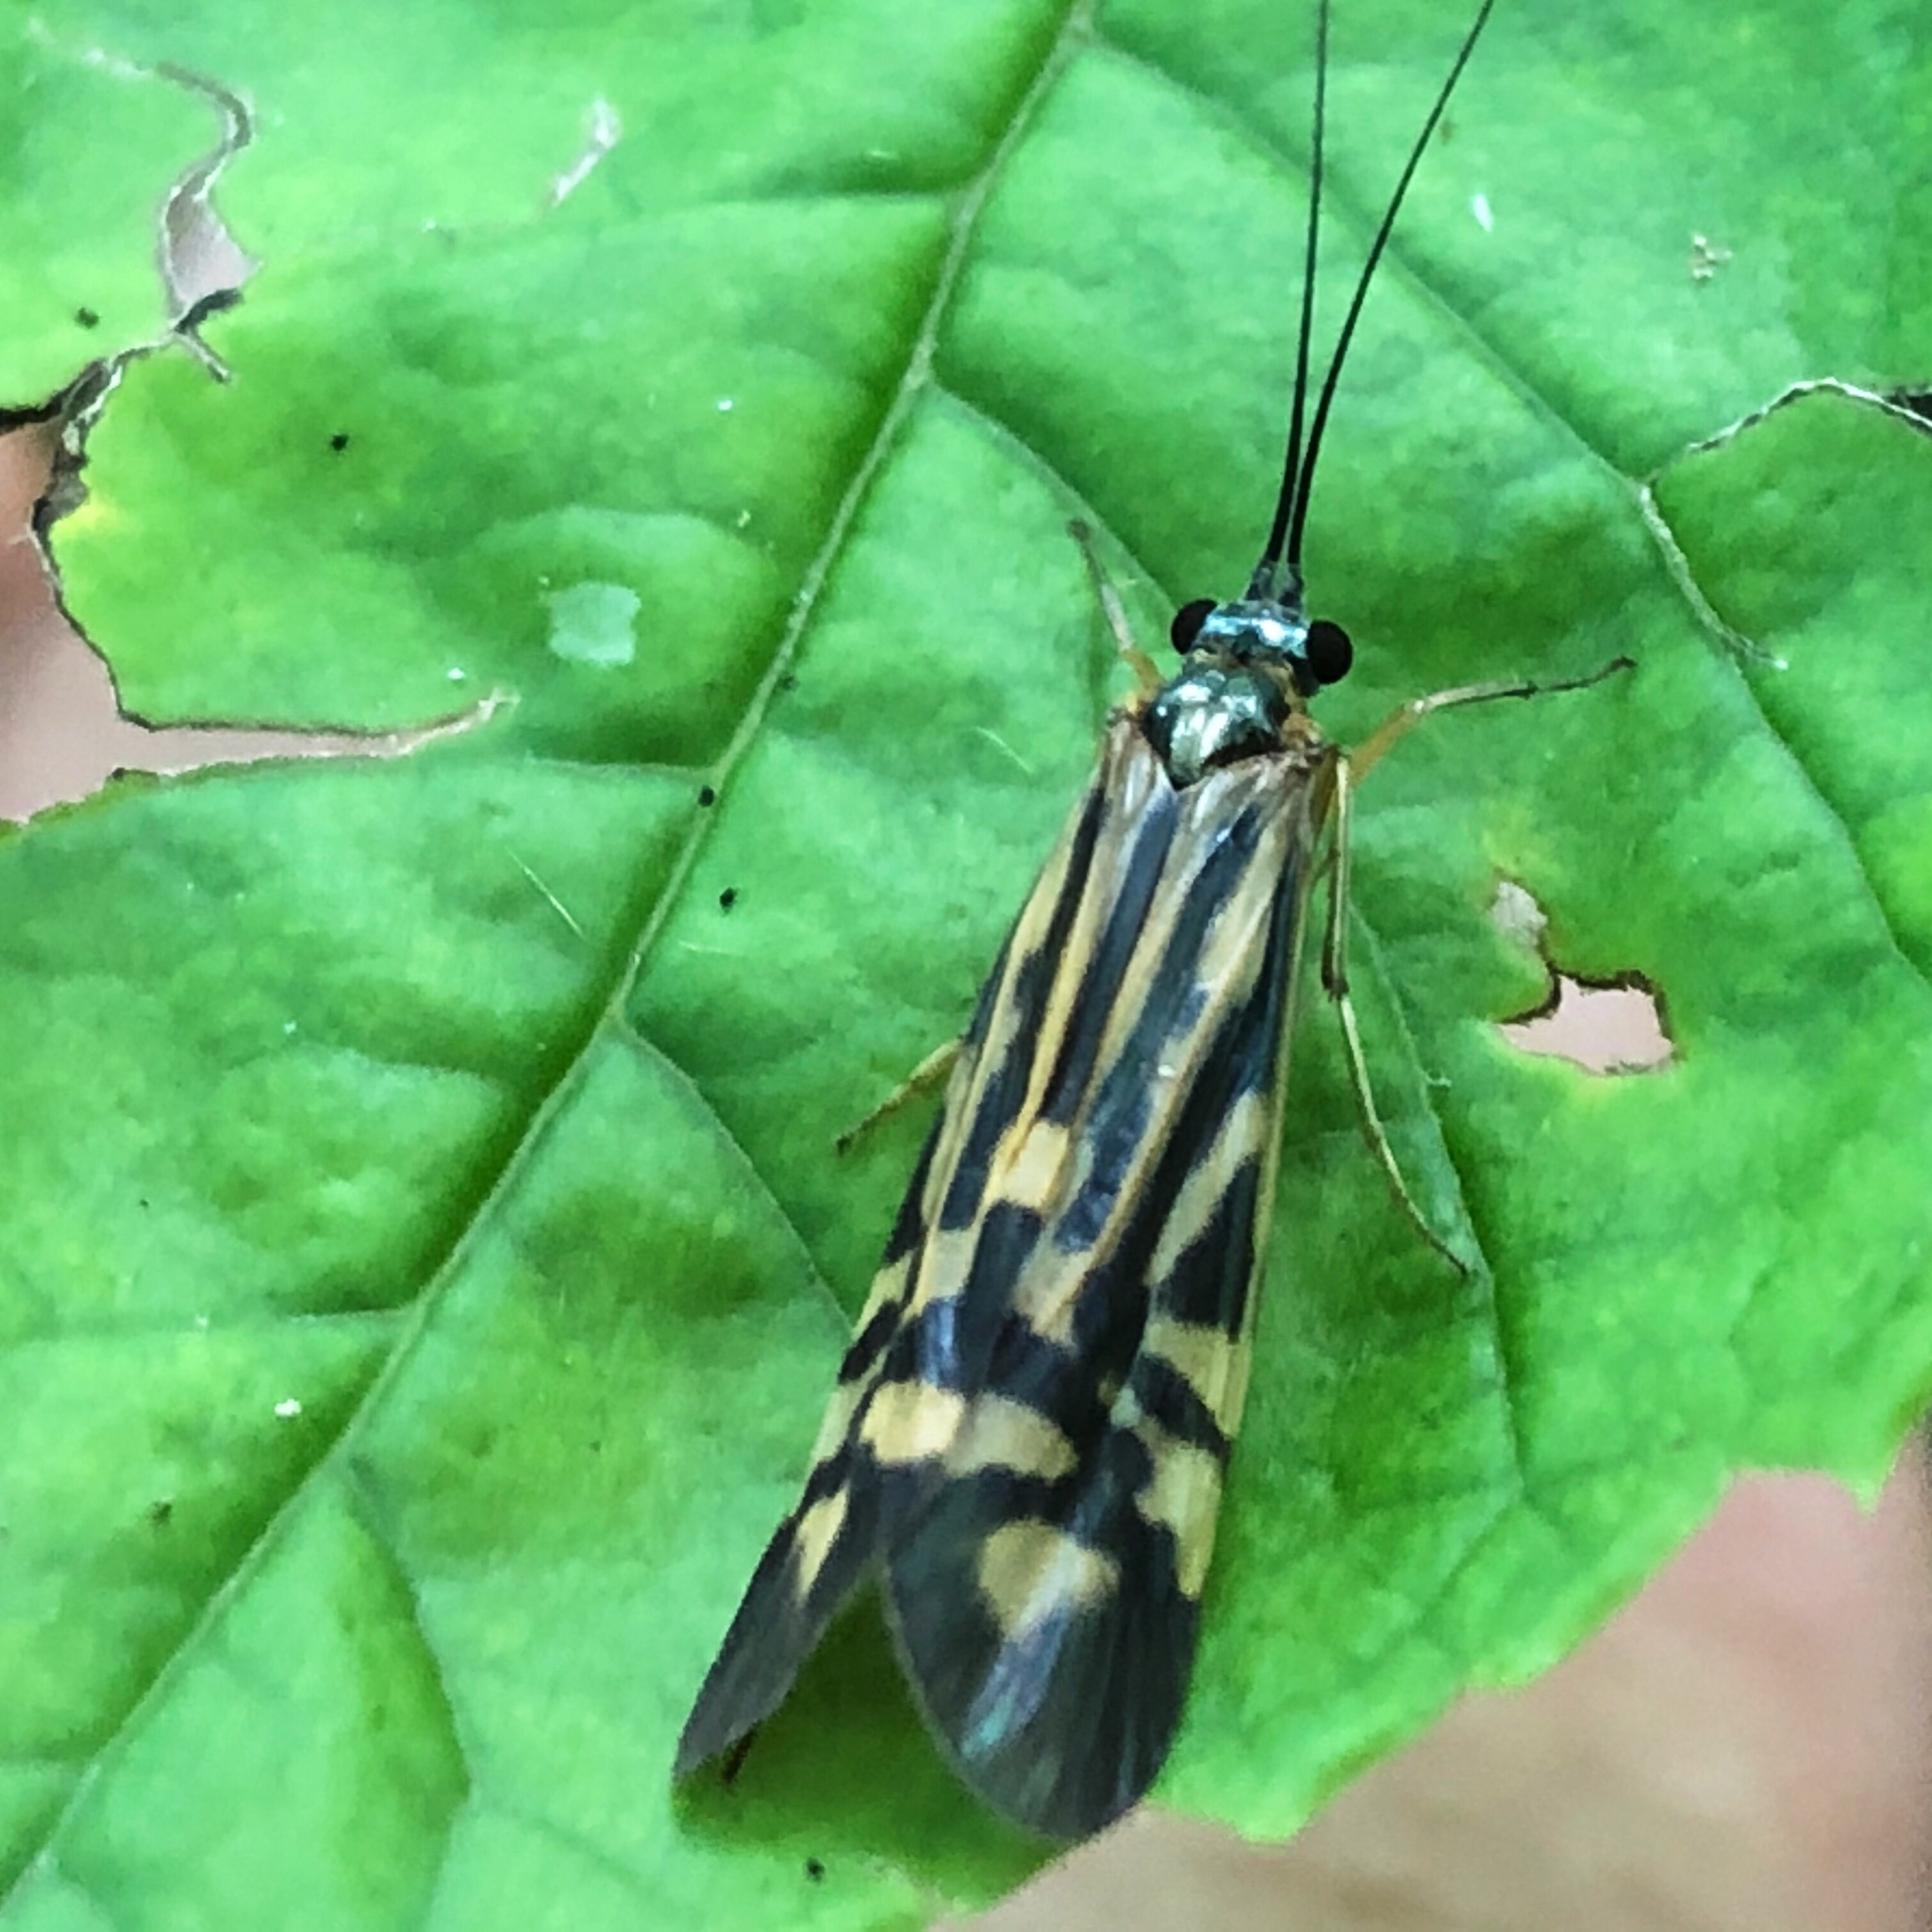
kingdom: Animalia
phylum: Arthropoda
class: Insecta
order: Trichoptera
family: Hydropsychidae
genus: Macrostemum
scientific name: Macrostemum zebratum
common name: Zebra caddisfly
